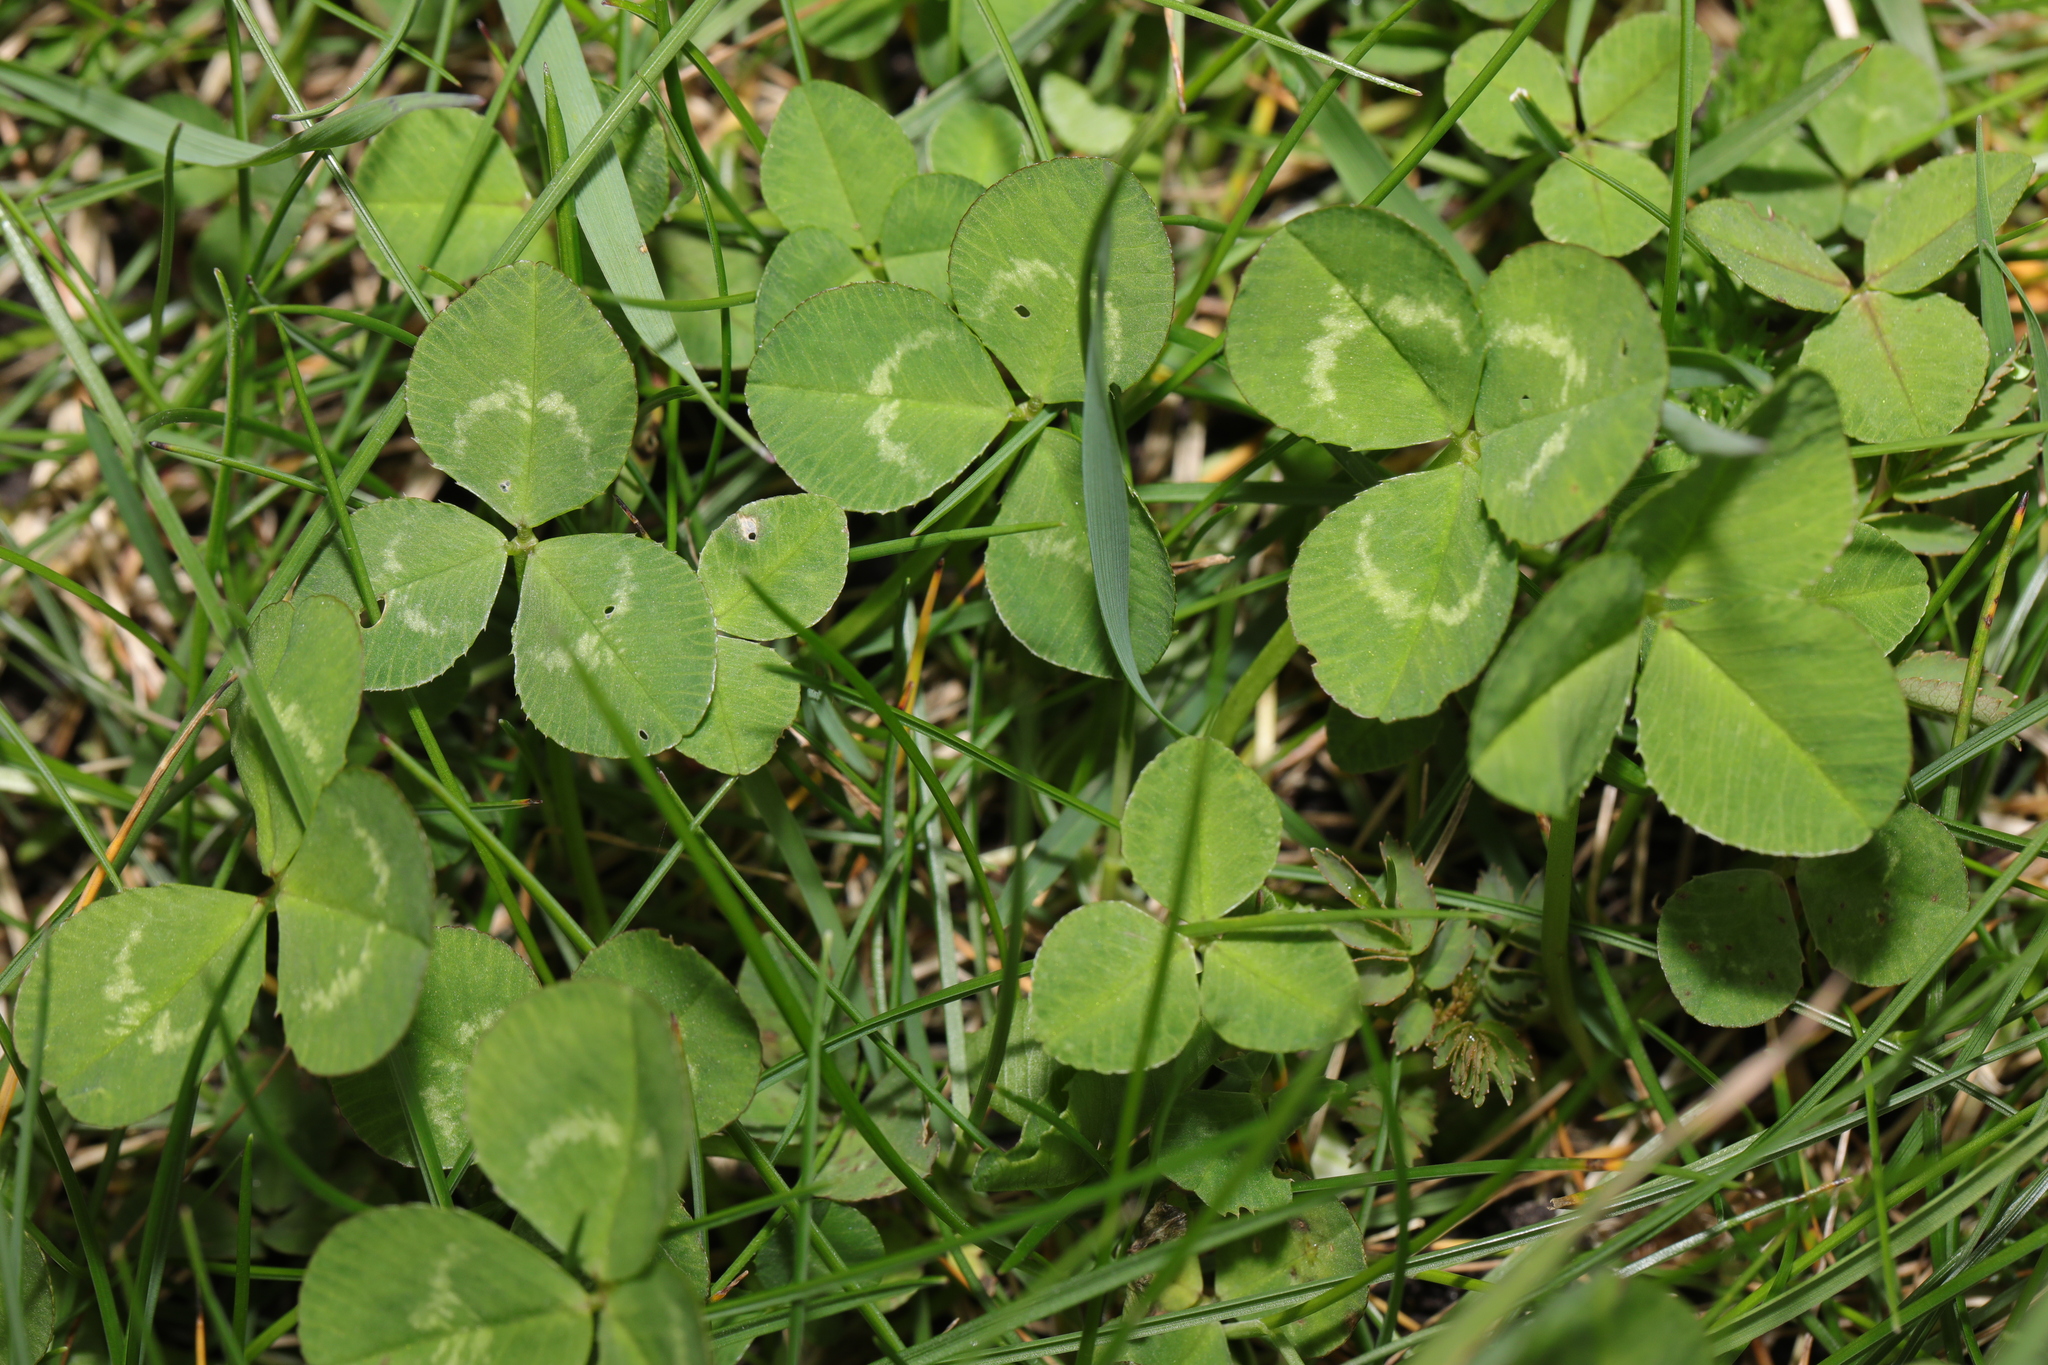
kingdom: Plantae
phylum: Tracheophyta
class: Magnoliopsida
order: Fabales
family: Fabaceae
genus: Trifolium
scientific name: Trifolium repens
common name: White clover
